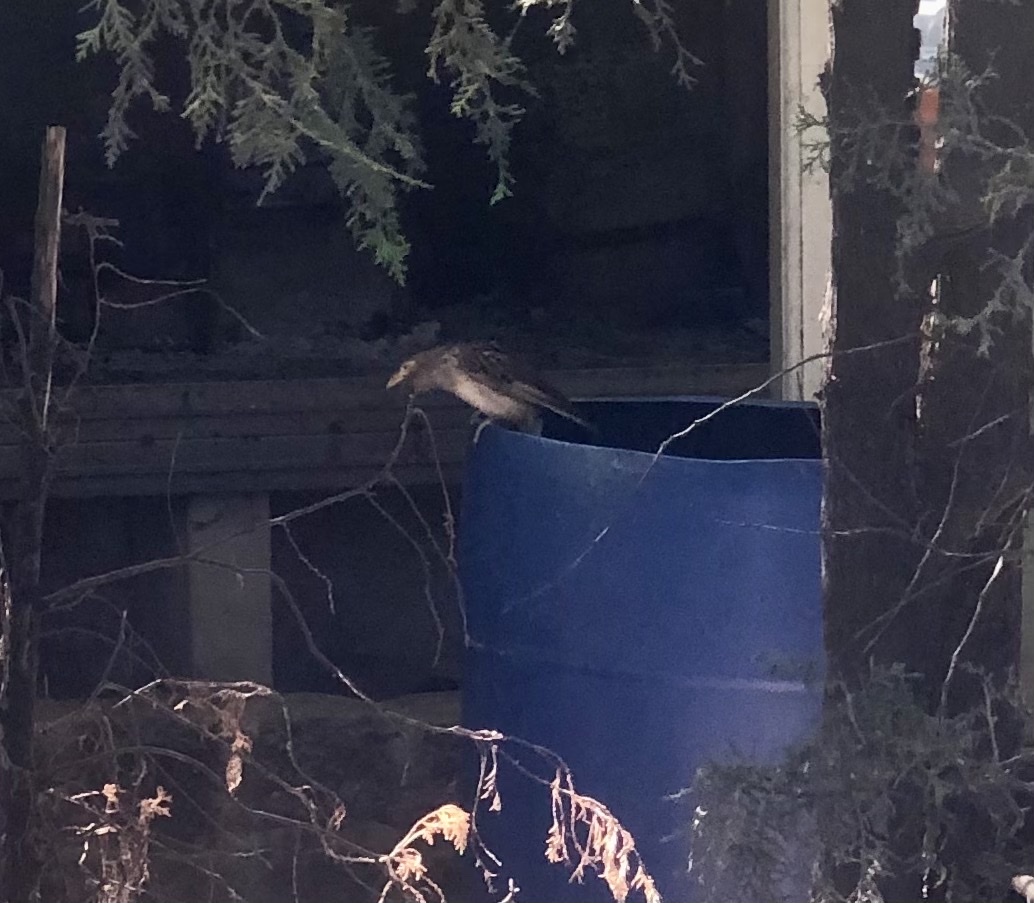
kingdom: Animalia
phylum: Chordata
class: Aves
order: Cuculiformes
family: Cuculidae
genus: Guira
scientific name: Guira guira
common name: Guira cuckoo
